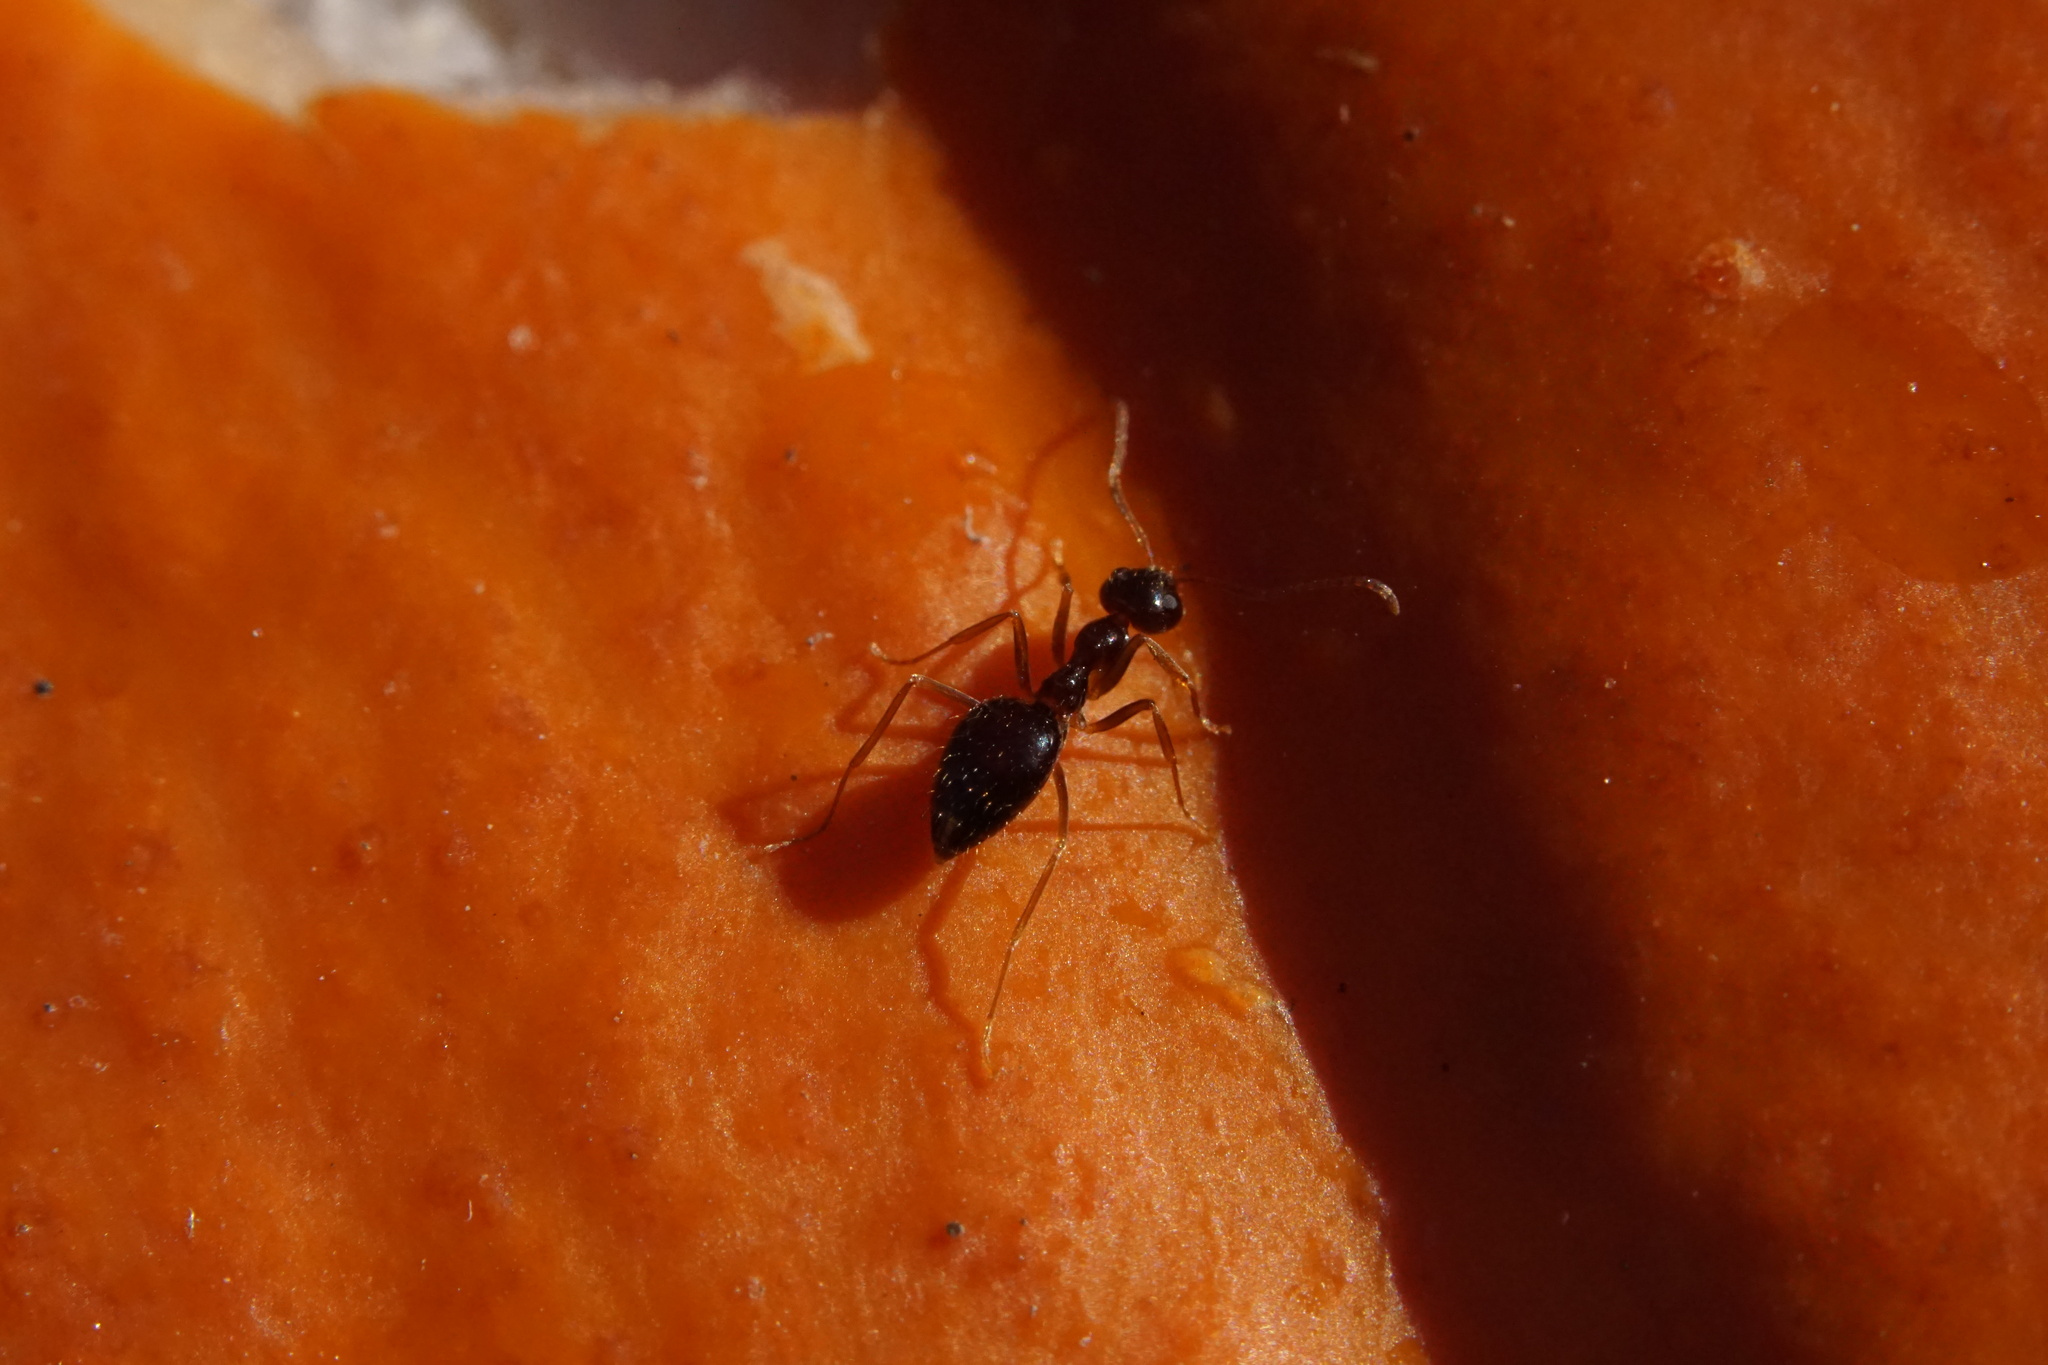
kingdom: Animalia
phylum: Arthropoda
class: Insecta
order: Hymenoptera
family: Formicidae
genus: Prenolepis
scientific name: Prenolepis imparis
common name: Small honey ant
